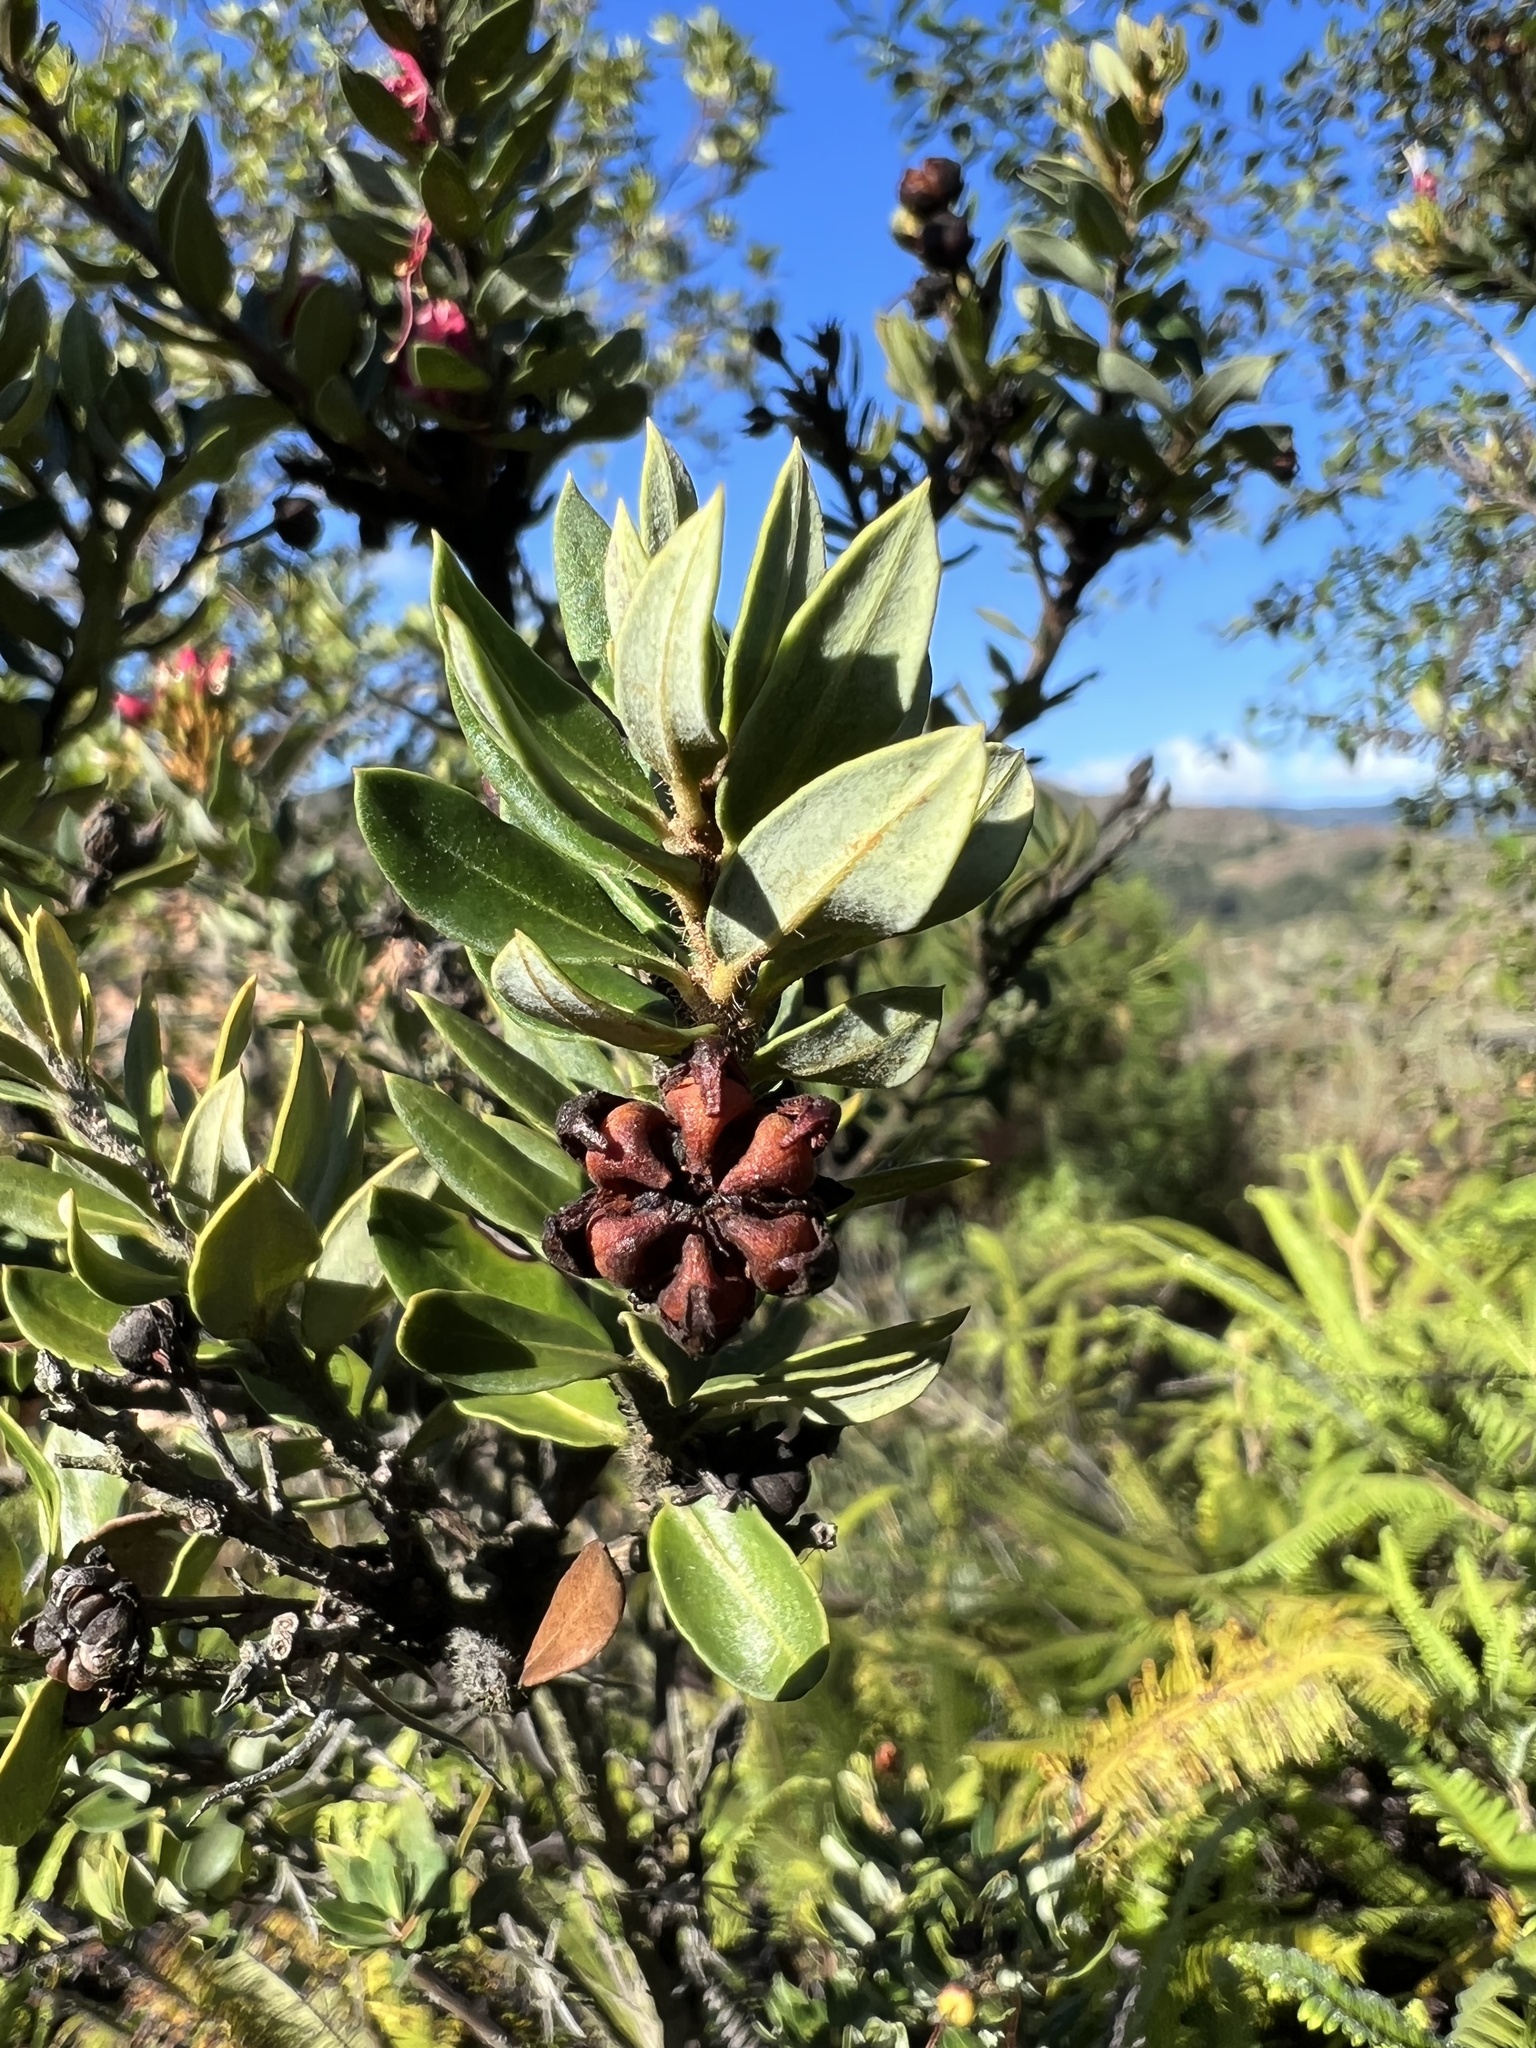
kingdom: Plantae
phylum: Tracheophyta
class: Magnoliopsida
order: Ericales
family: Ericaceae
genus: Bejaria
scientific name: Bejaria resinosa
